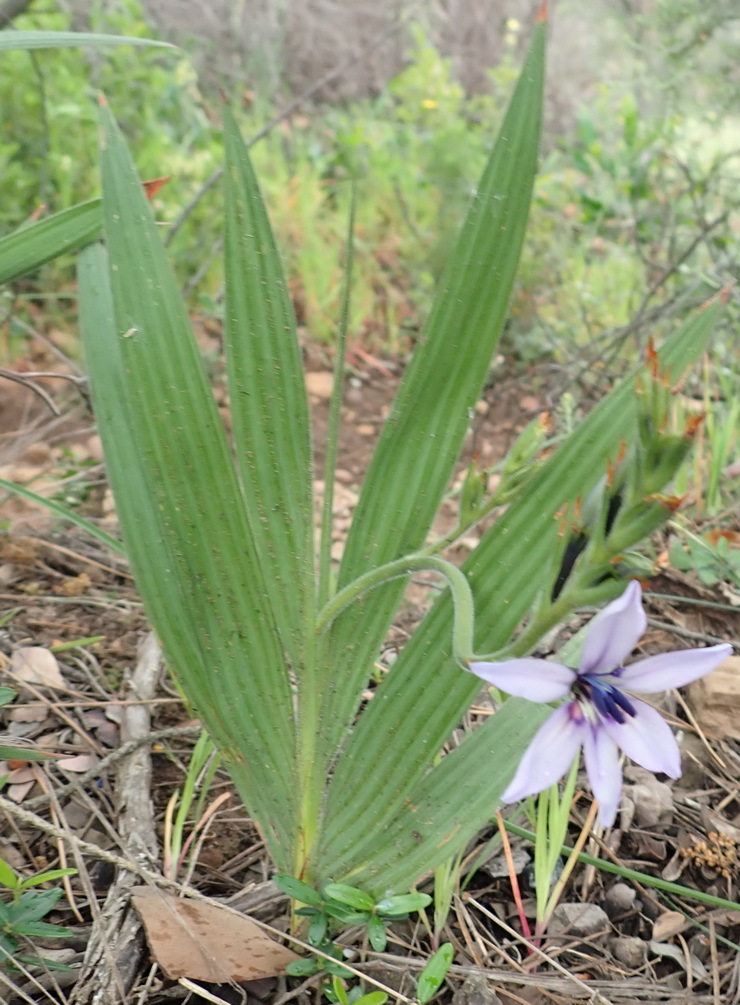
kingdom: Plantae
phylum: Tracheophyta
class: Liliopsida
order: Asparagales
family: Iridaceae
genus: Babiana
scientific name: Babiana fragrans
